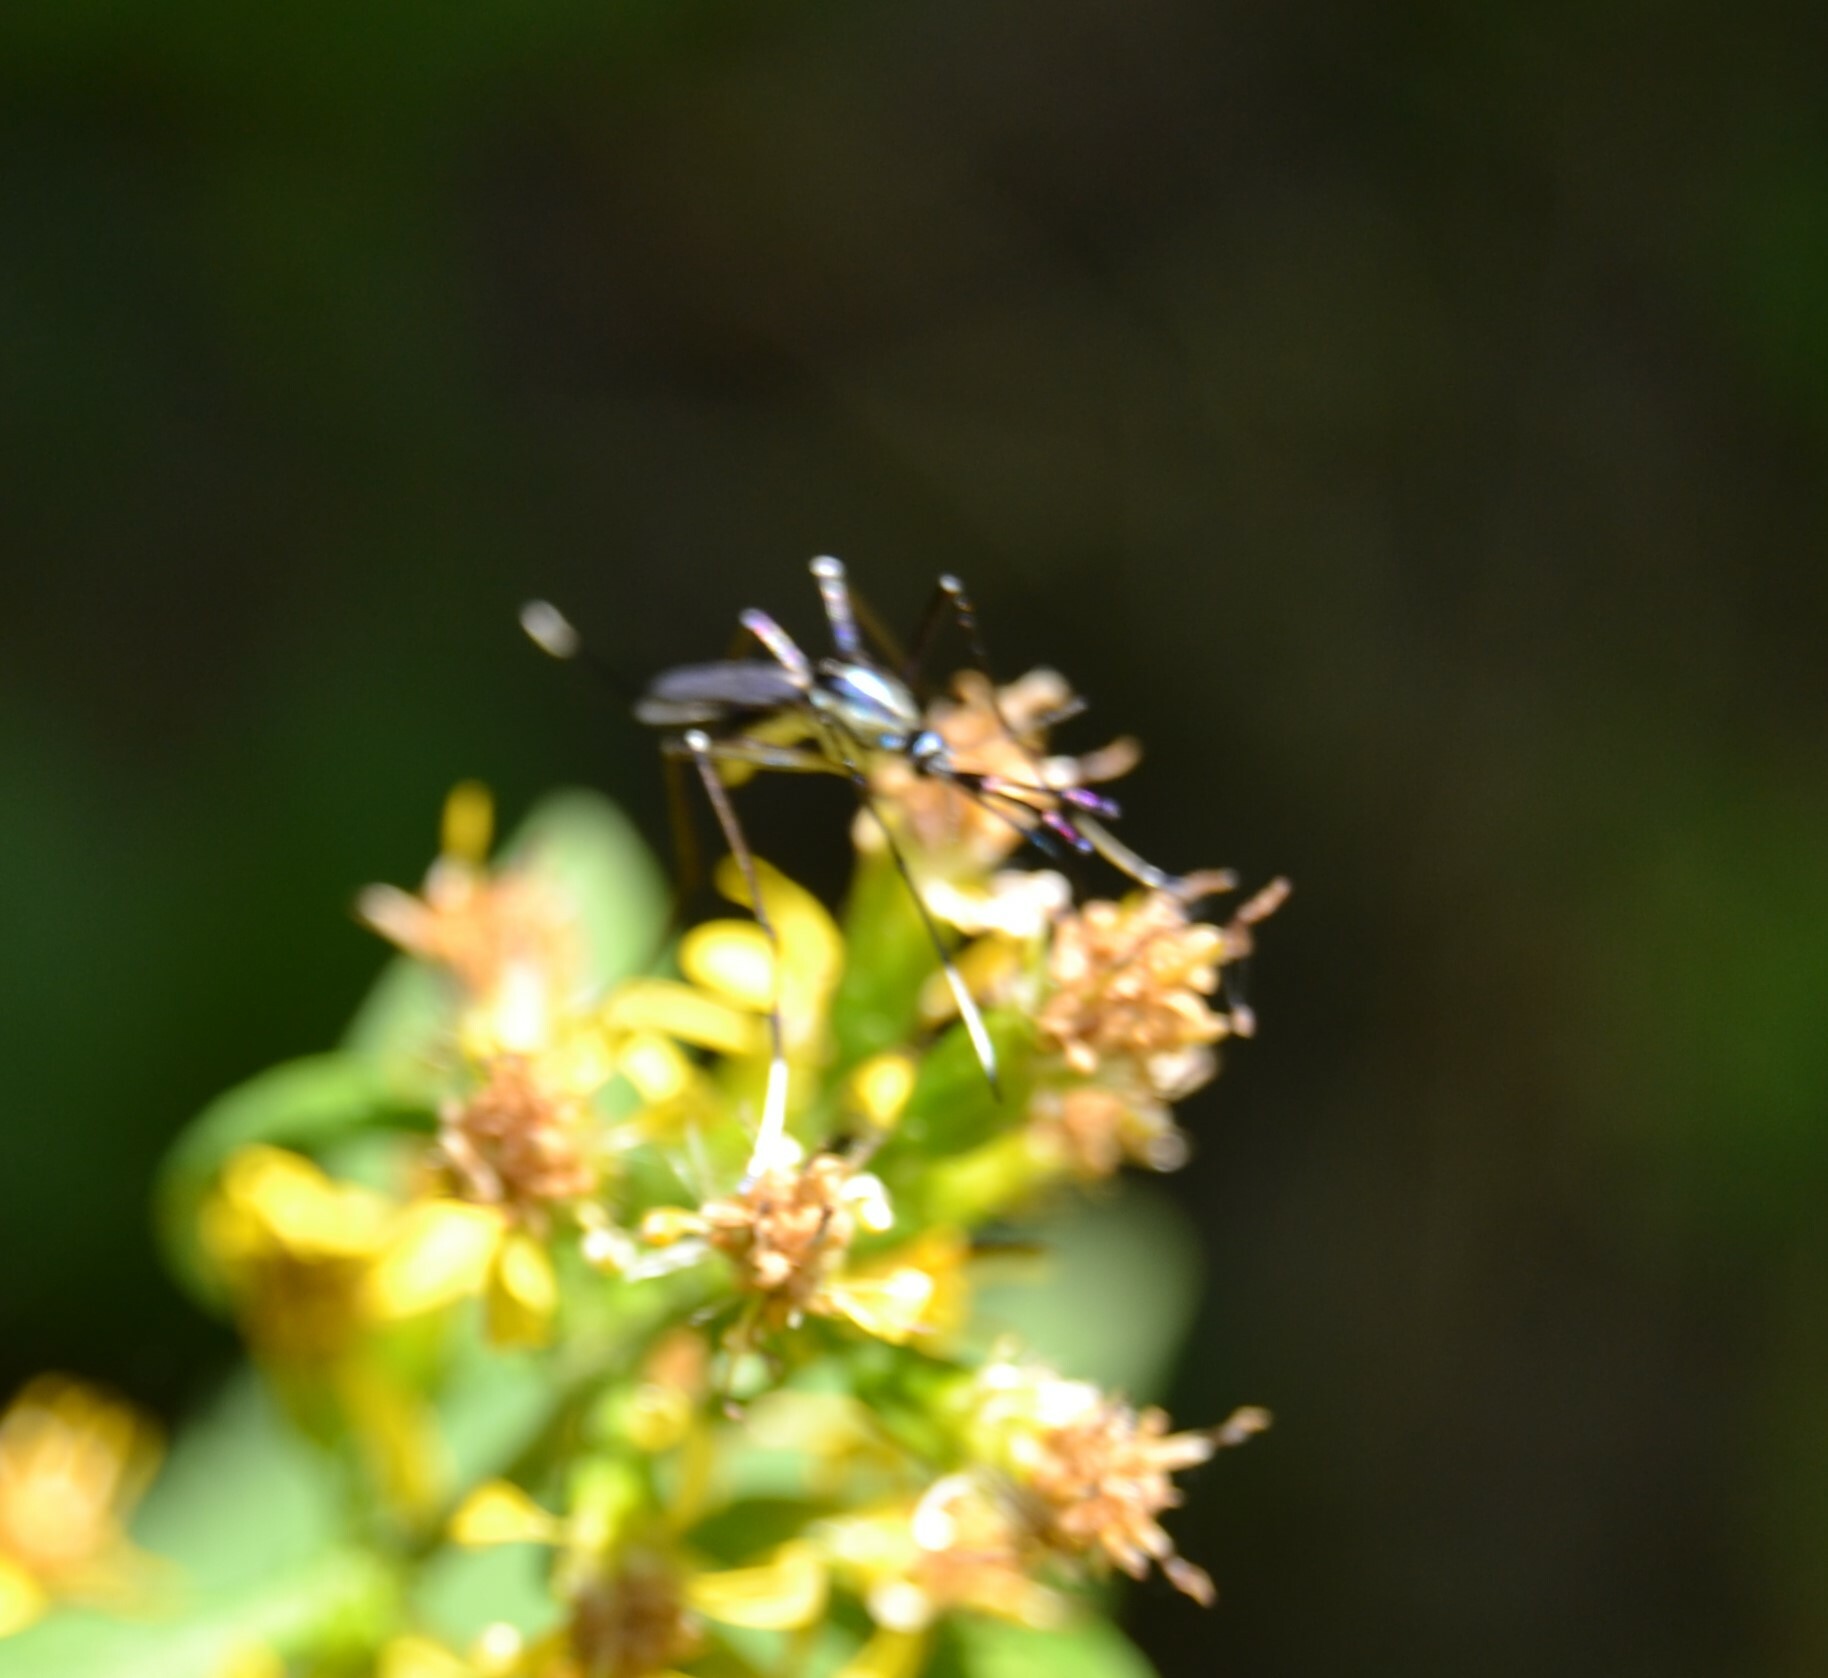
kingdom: Animalia
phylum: Arthropoda
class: Insecta
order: Diptera
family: Culicidae
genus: Toxorhynchites
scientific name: Toxorhynchites rutilus
